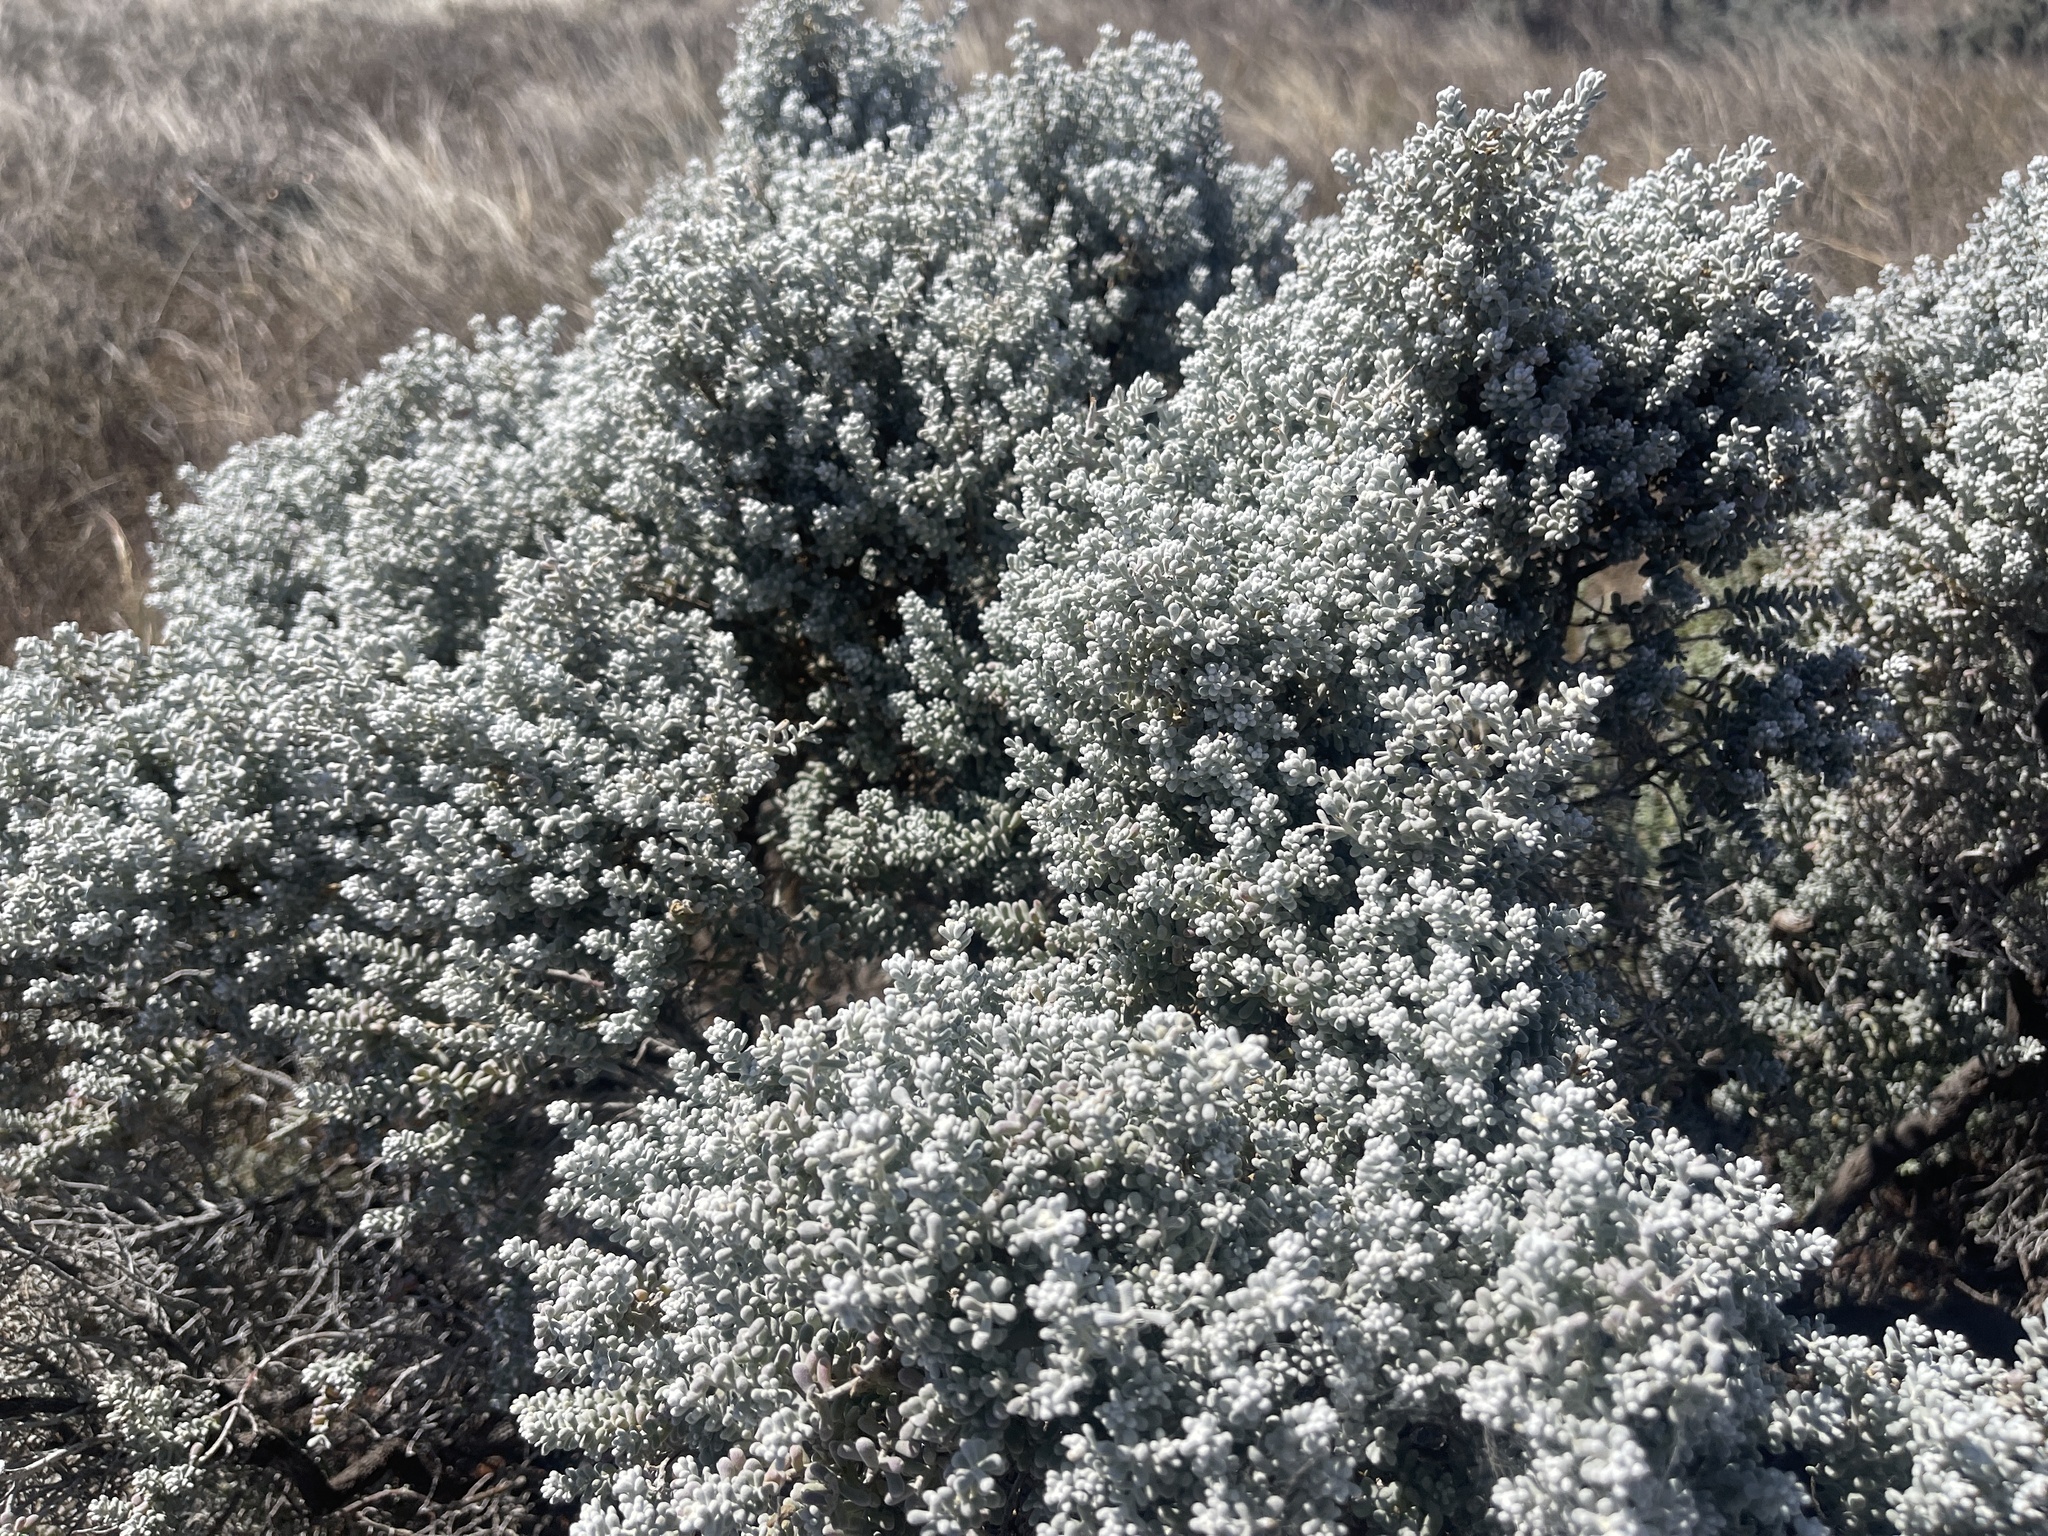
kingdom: Plantae
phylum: Tracheophyta
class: Magnoliopsida
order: Caryophyllales
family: Amaranthaceae
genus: Maireana
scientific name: Maireana sedifolia
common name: Hoary bluebush
